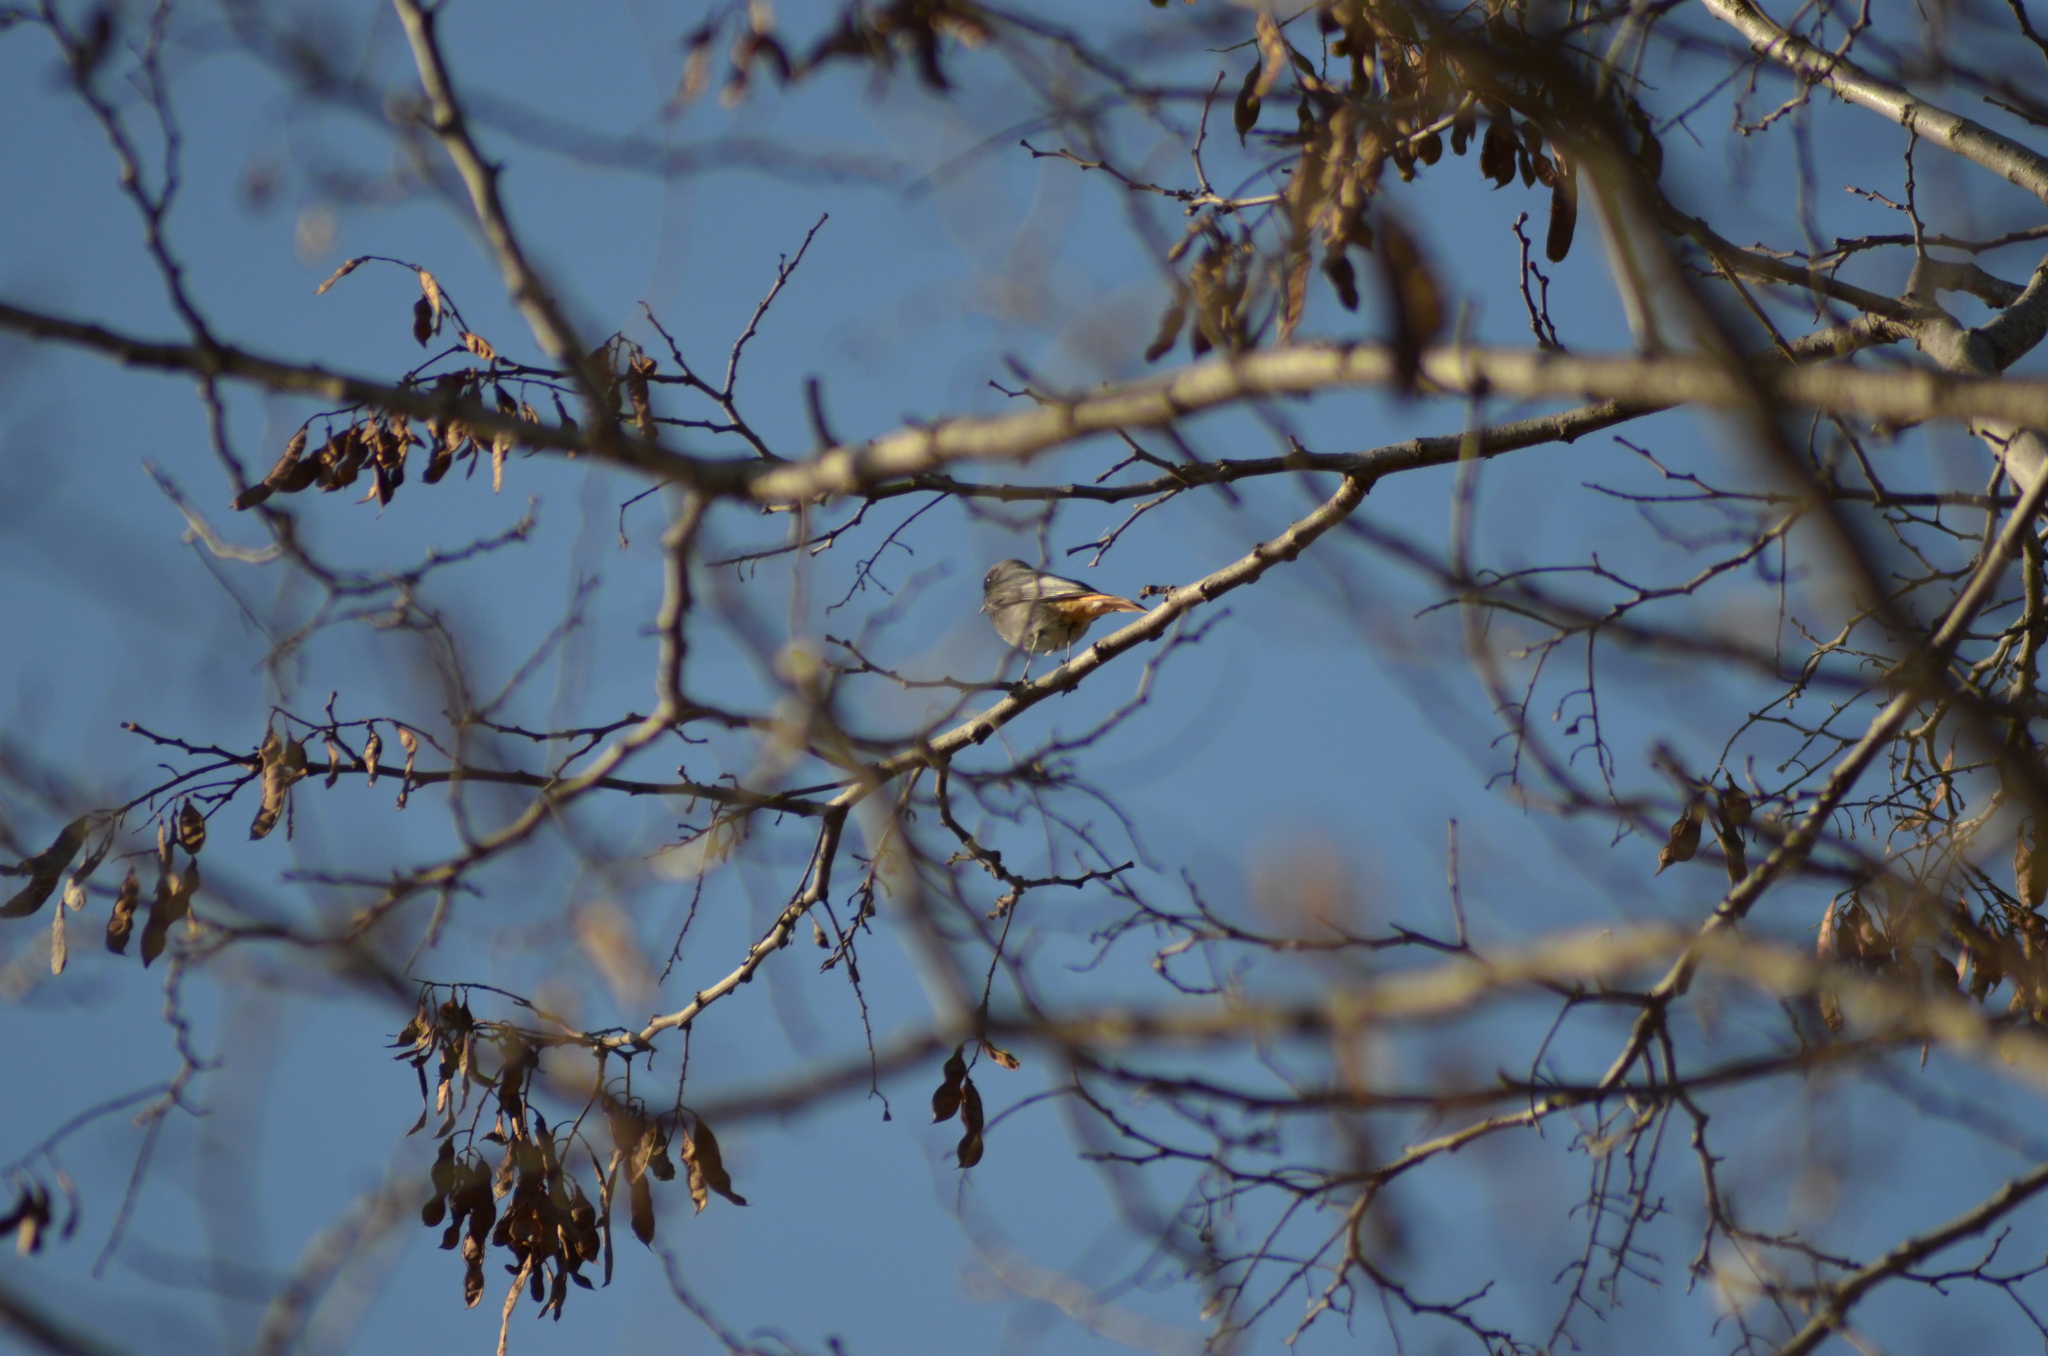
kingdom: Animalia
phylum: Chordata
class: Aves
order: Passeriformes
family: Muscicapidae
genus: Phoenicurus
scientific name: Phoenicurus ochruros
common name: Black redstart
